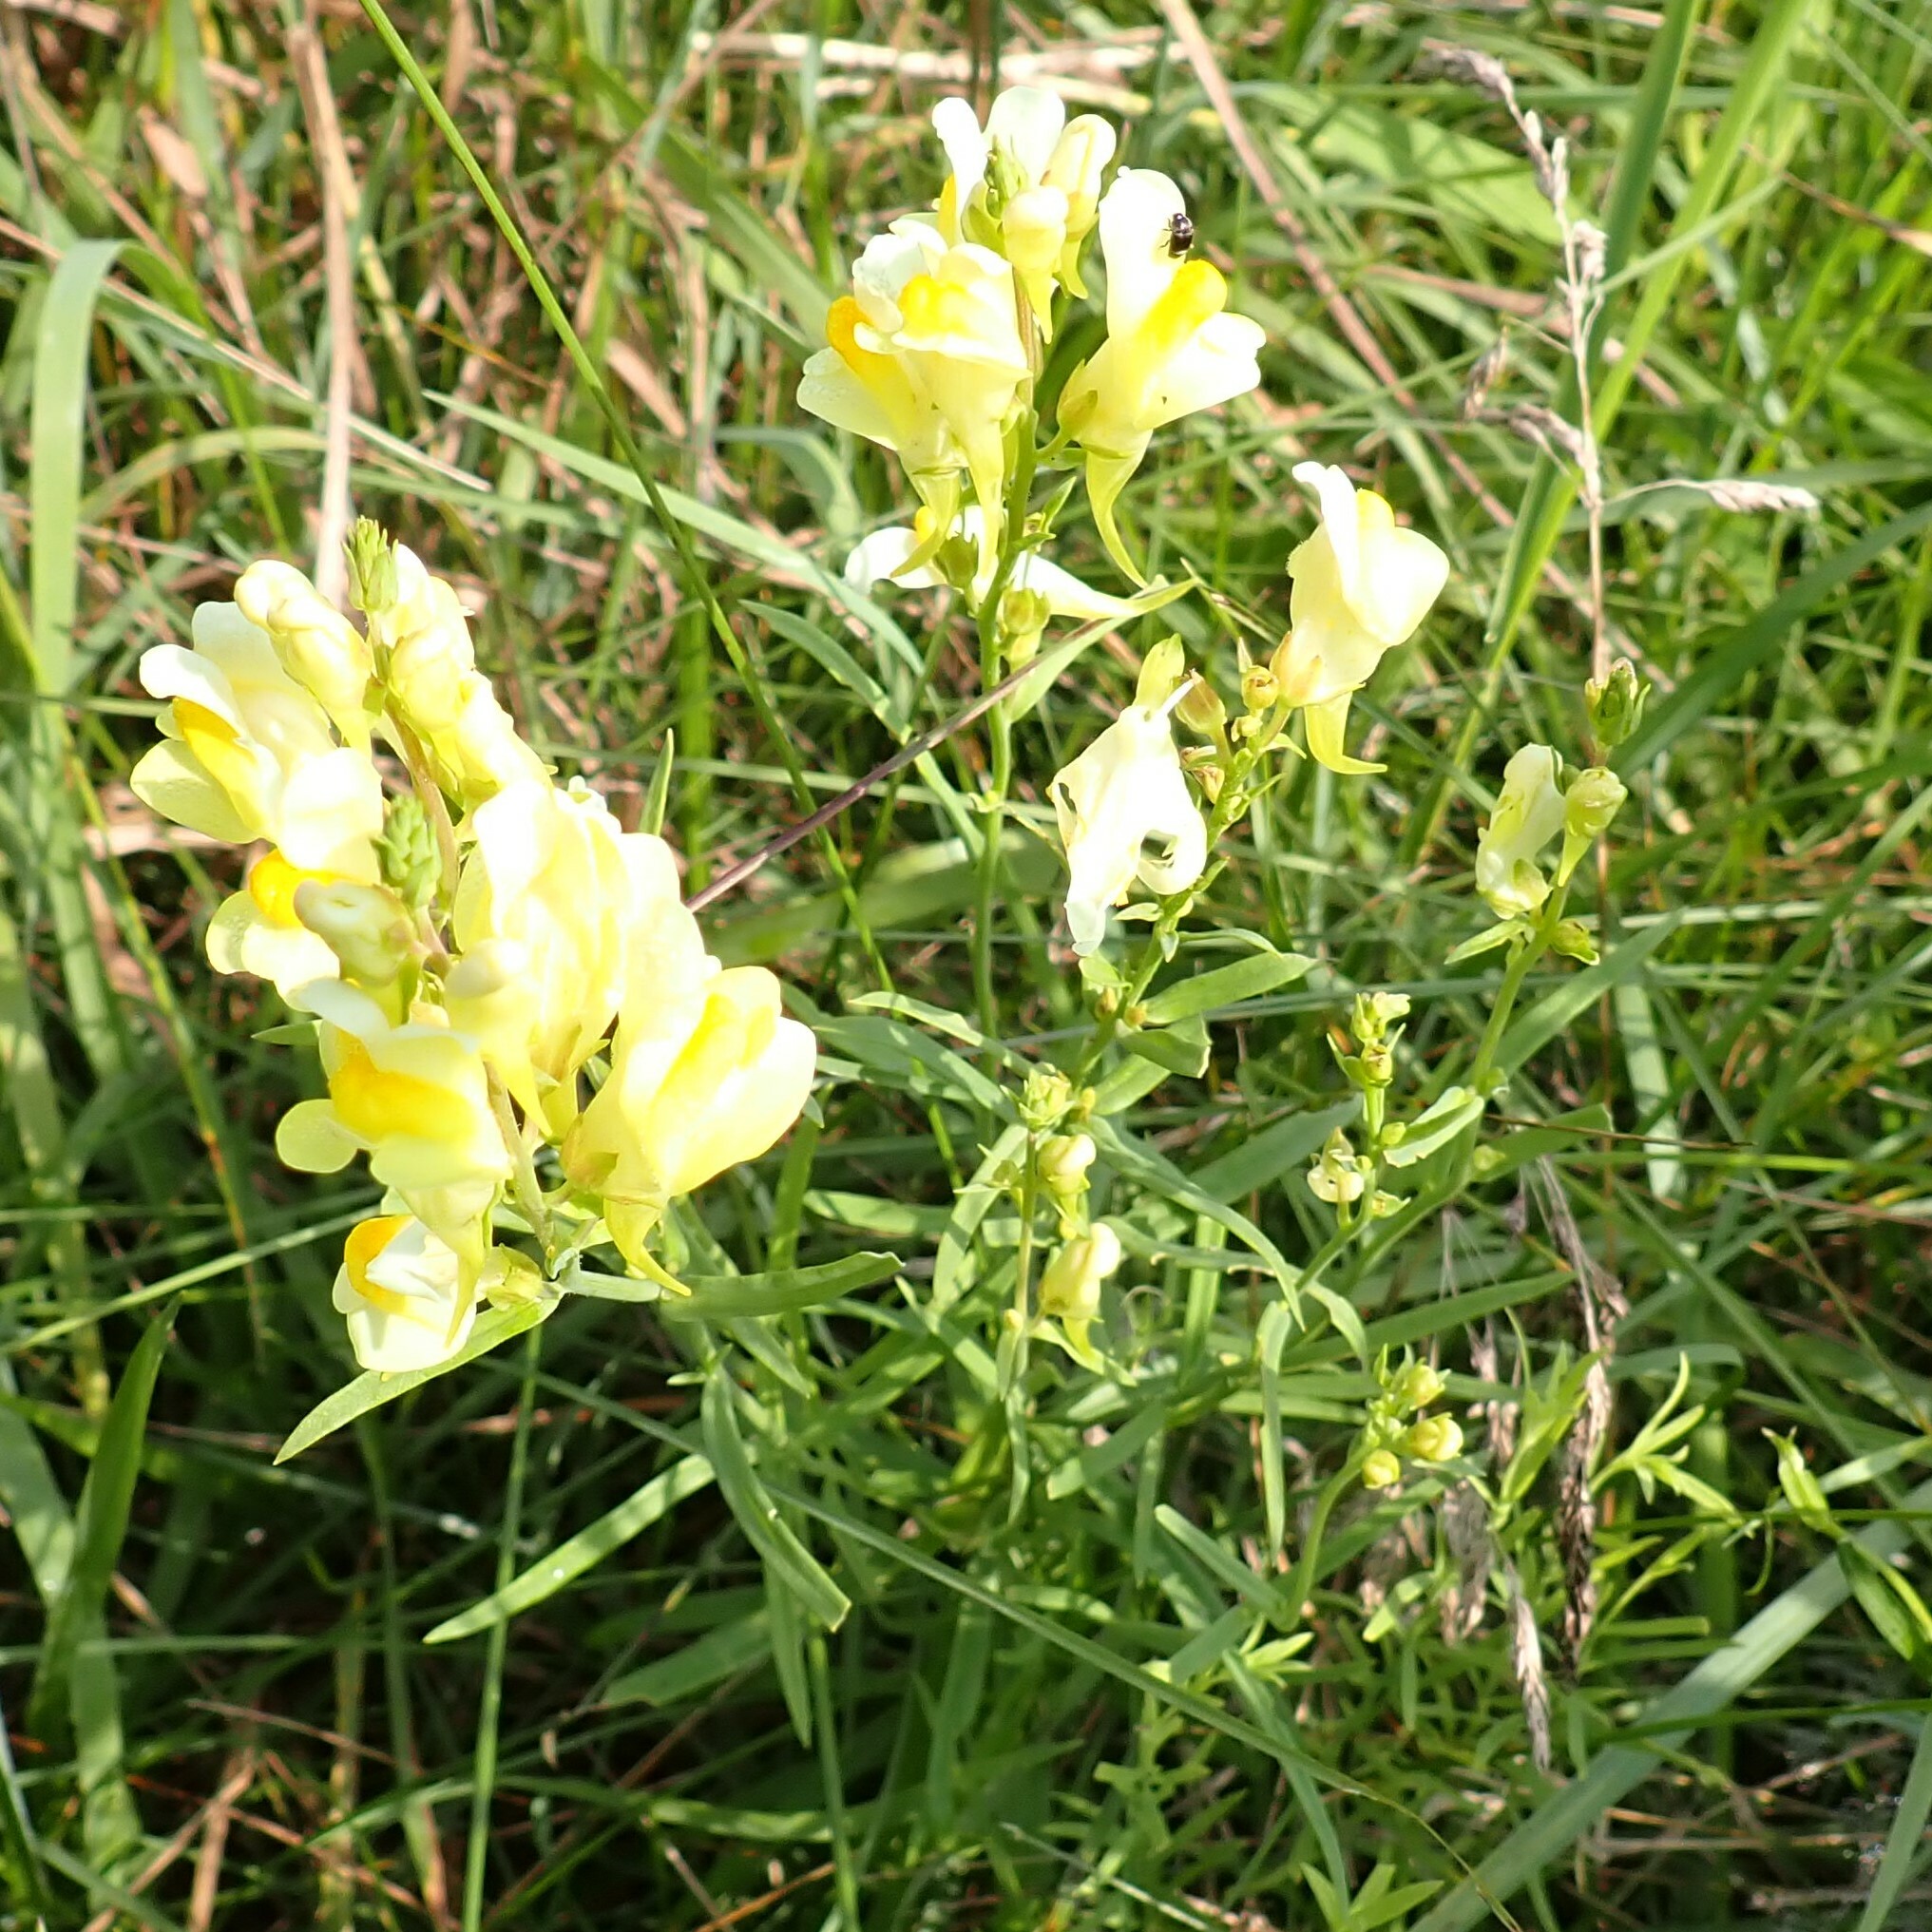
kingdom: Plantae
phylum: Tracheophyta
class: Magnoliopsida
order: Lamiales
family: Plantaginaceae
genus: Linaria
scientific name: Linaria vulgaris
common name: Butter and eggs
